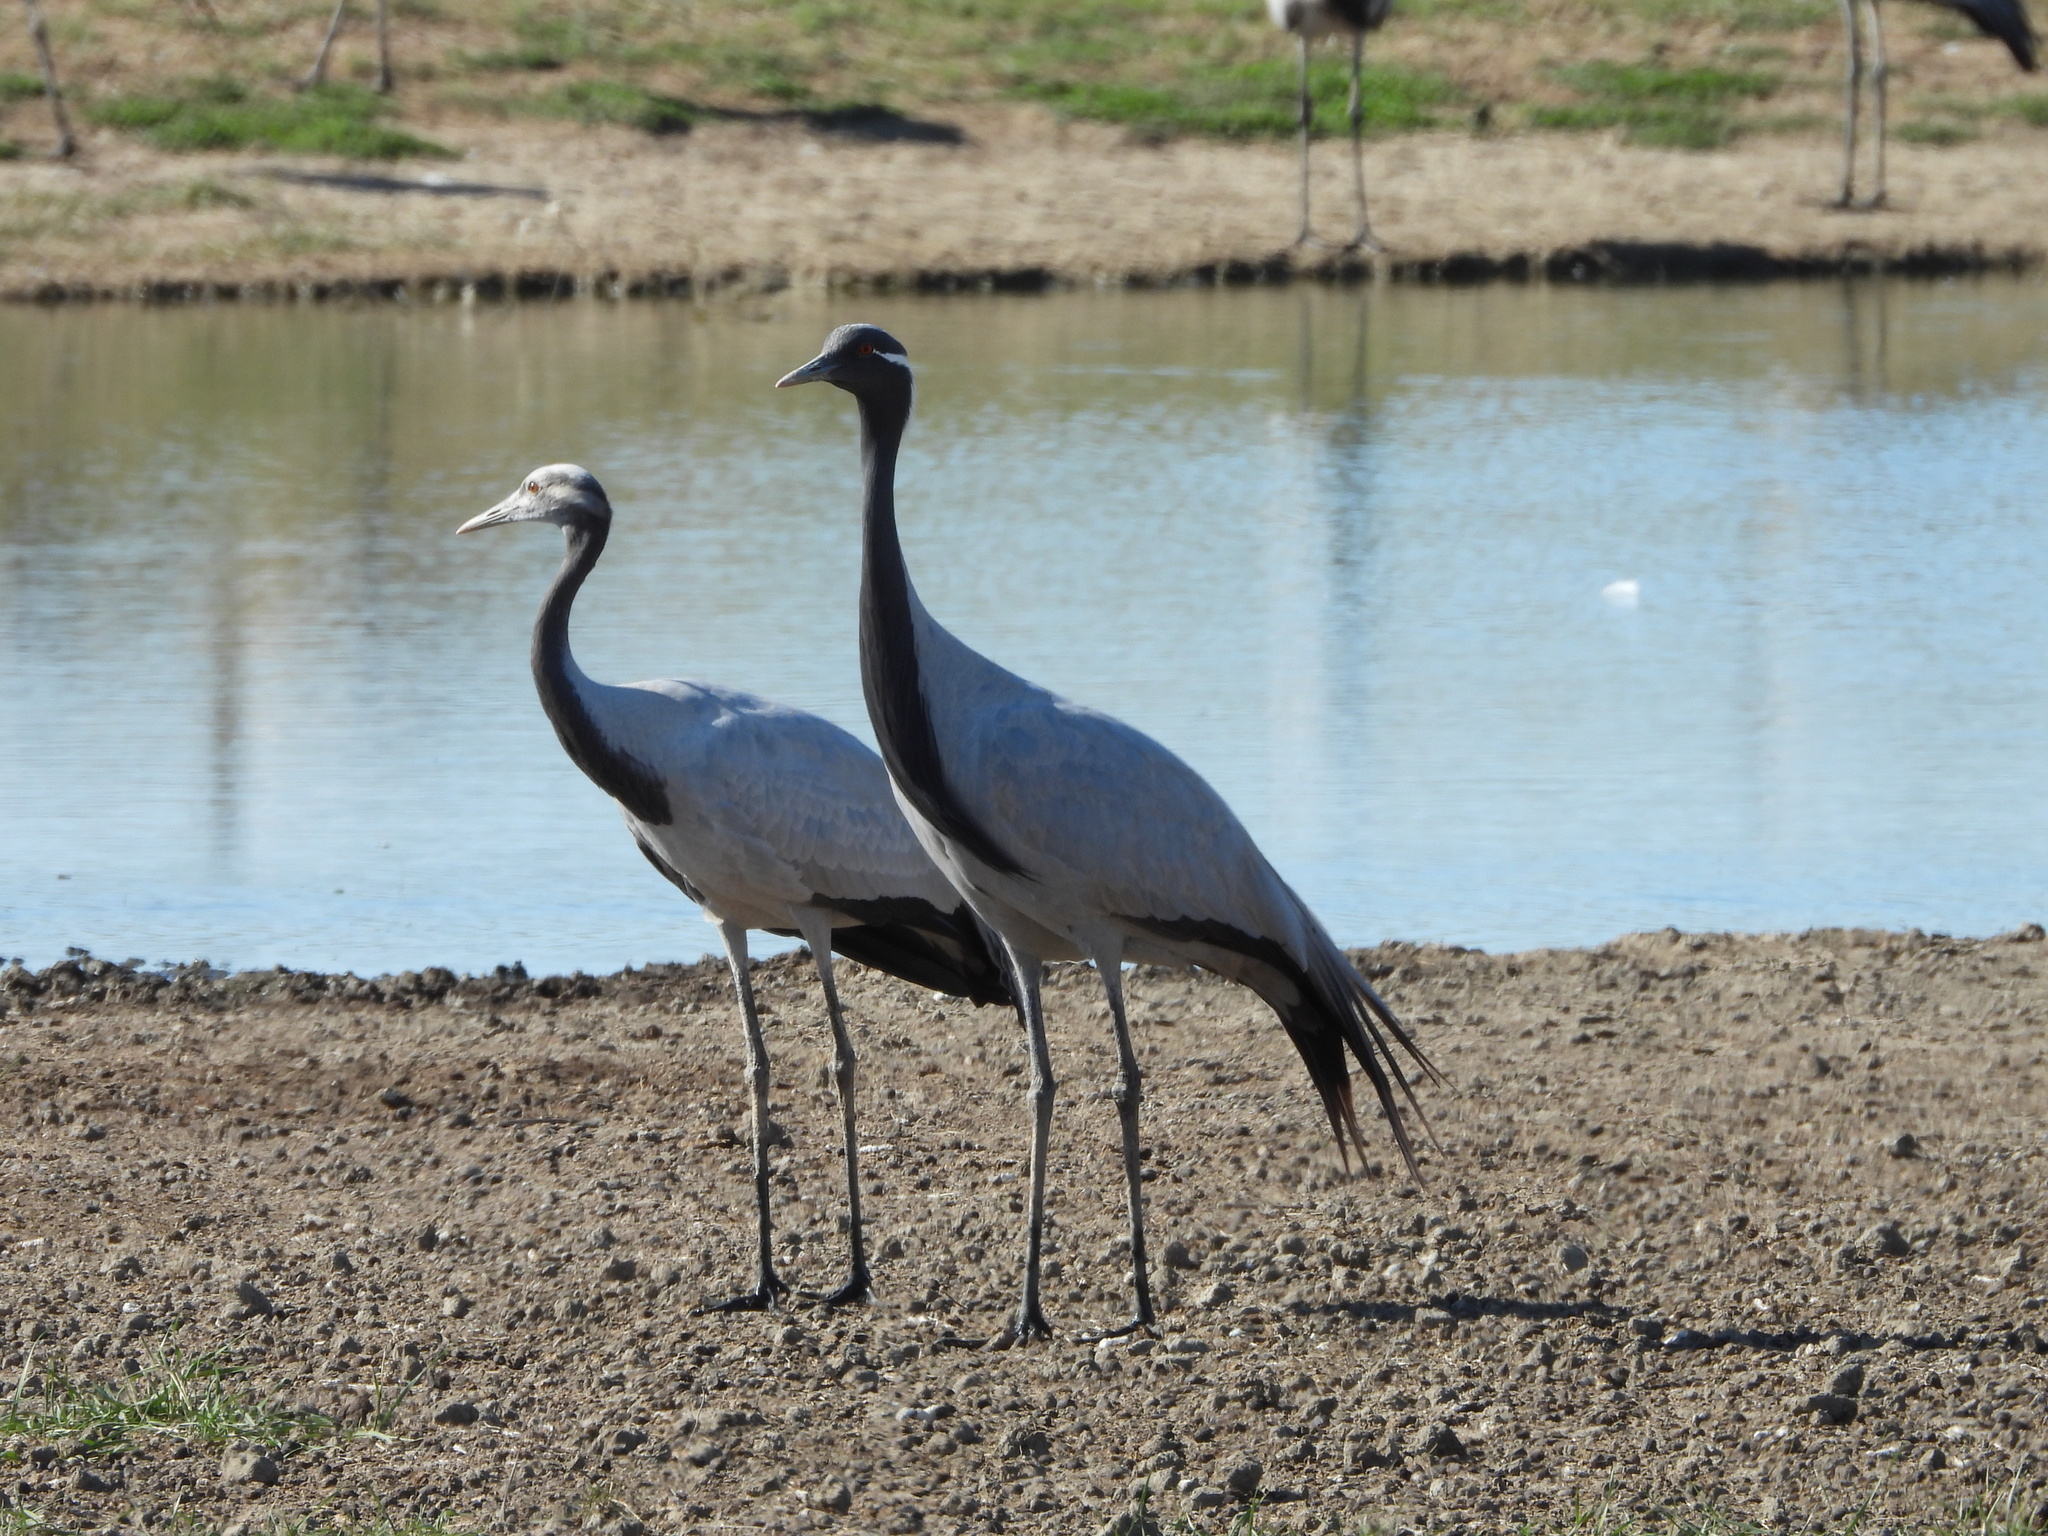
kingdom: Animalia
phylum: Chordata
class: Aves
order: Gruiformes
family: Gruidae
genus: Anthropoides
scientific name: Anthropoides virgo
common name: Demoiselle crane
